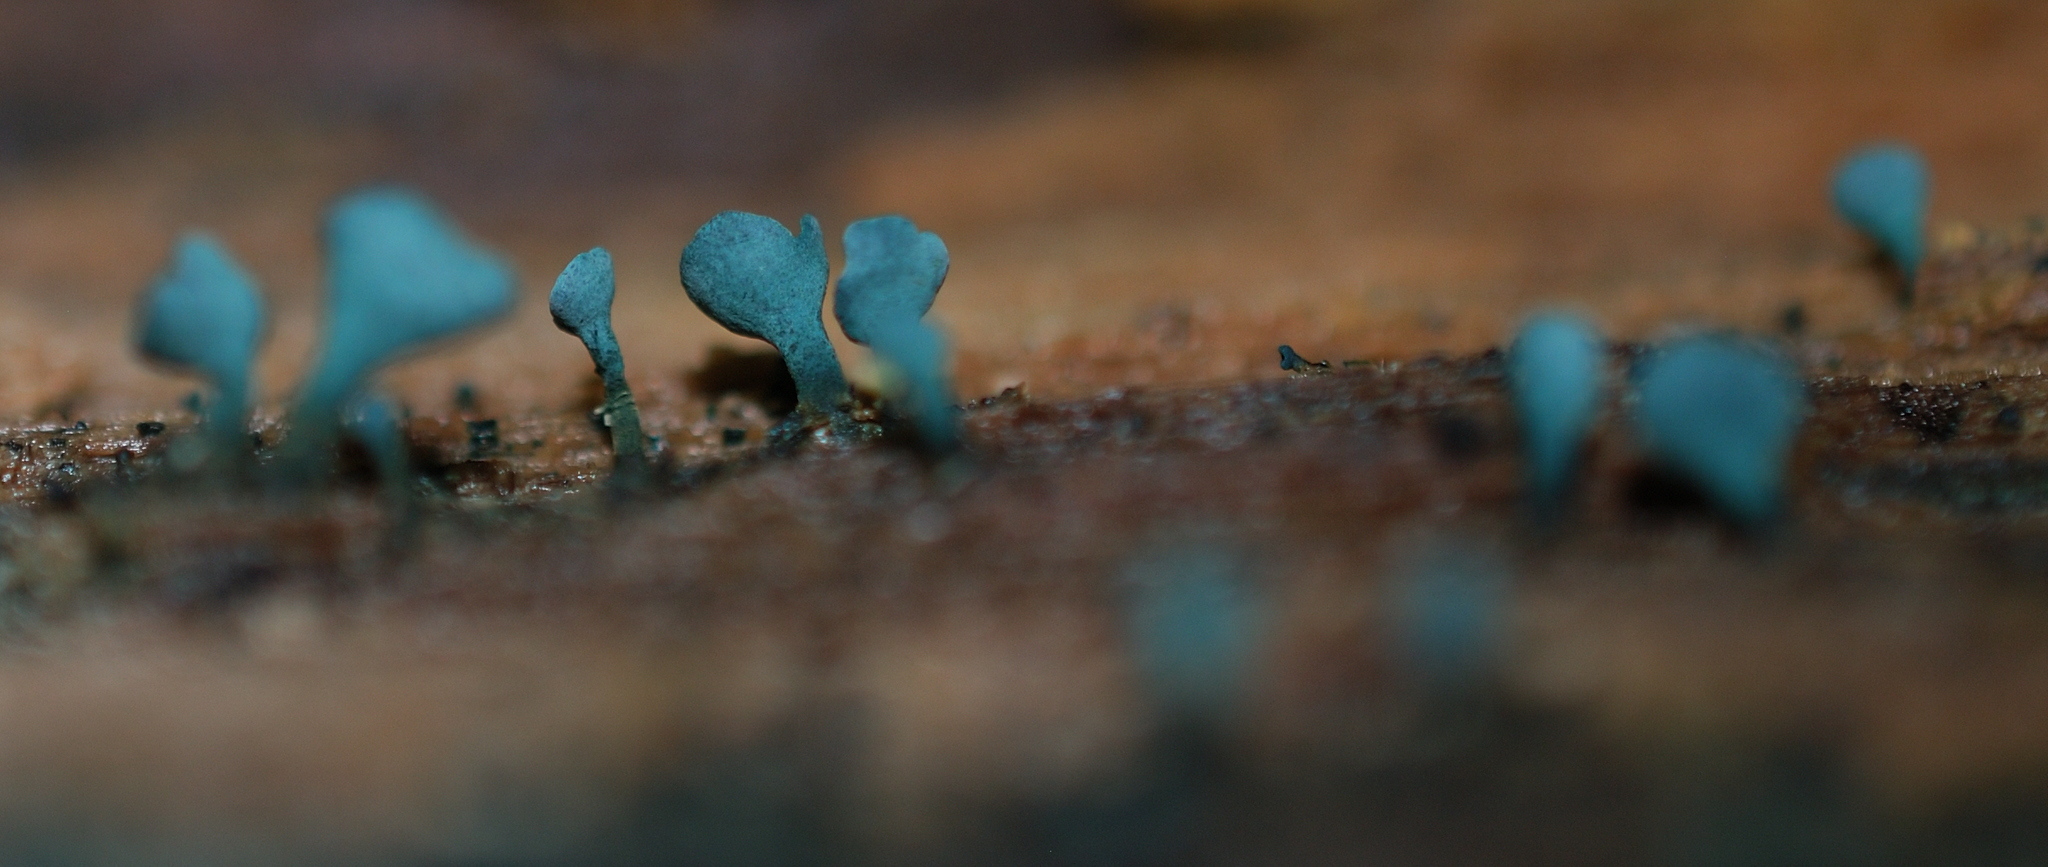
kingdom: Fungi
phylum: Ascomycota
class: Leotiomycetes
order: Helotiales
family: Chlorociboriaceae
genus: Chlorociboria
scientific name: Chlorociboria aeruginascens
